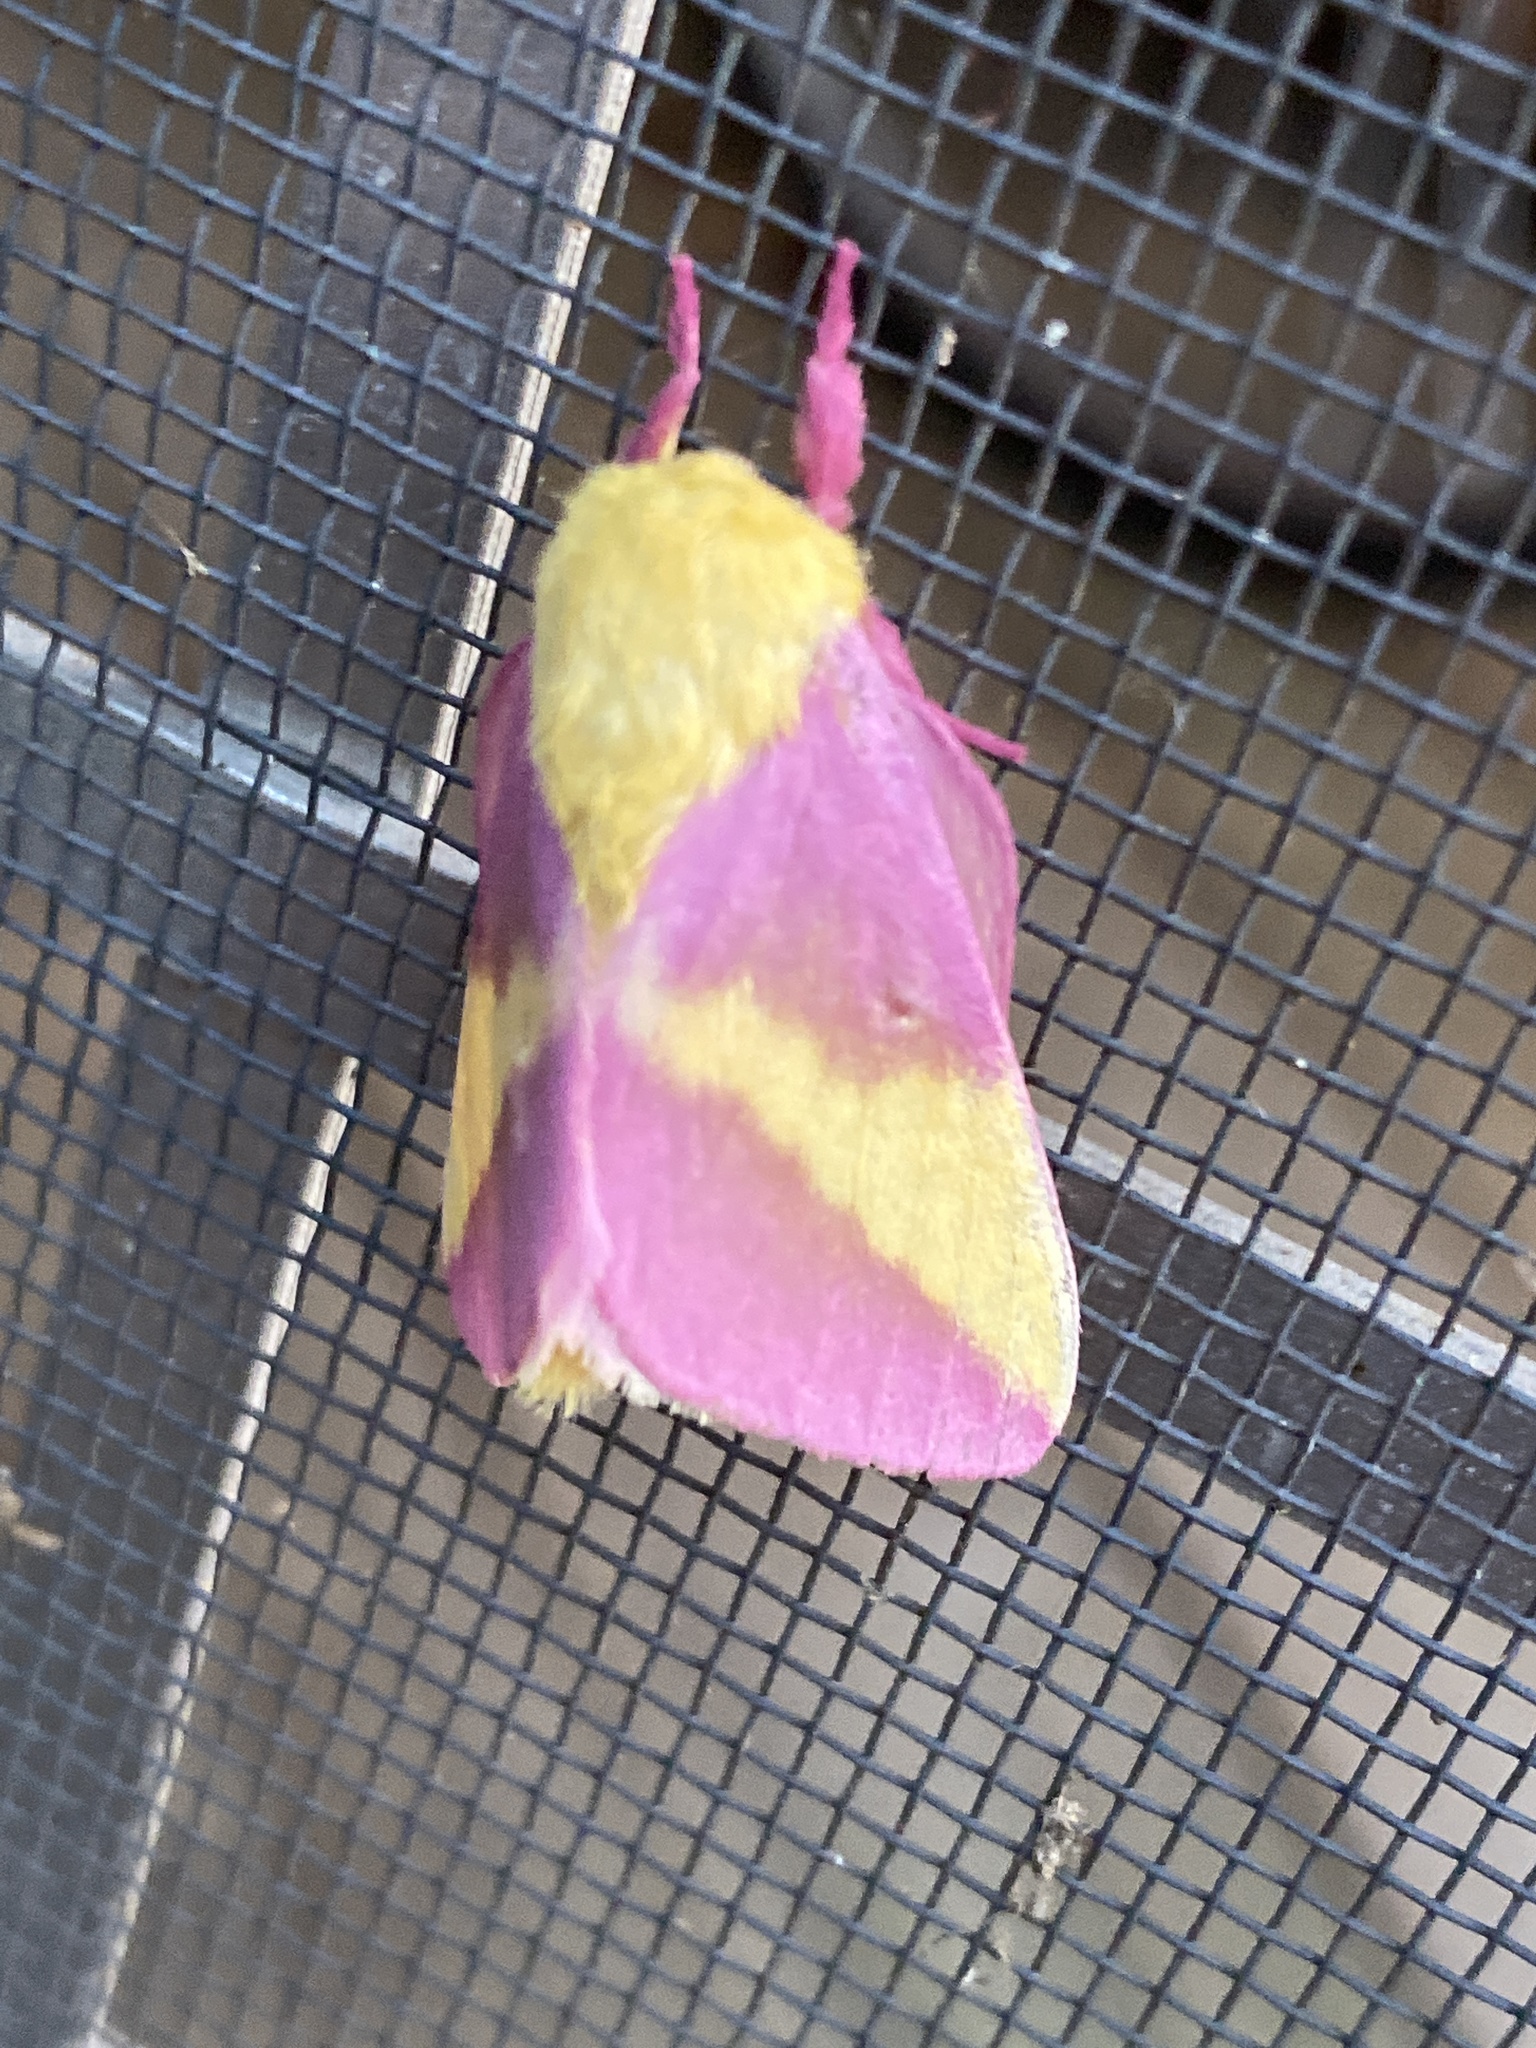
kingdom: Animalia
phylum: Arthropoda
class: Insecta
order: Lepidoptera
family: Saturniidae
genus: Dryocampa
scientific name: Dryocampa rubicunda
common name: Rosy maple moth
